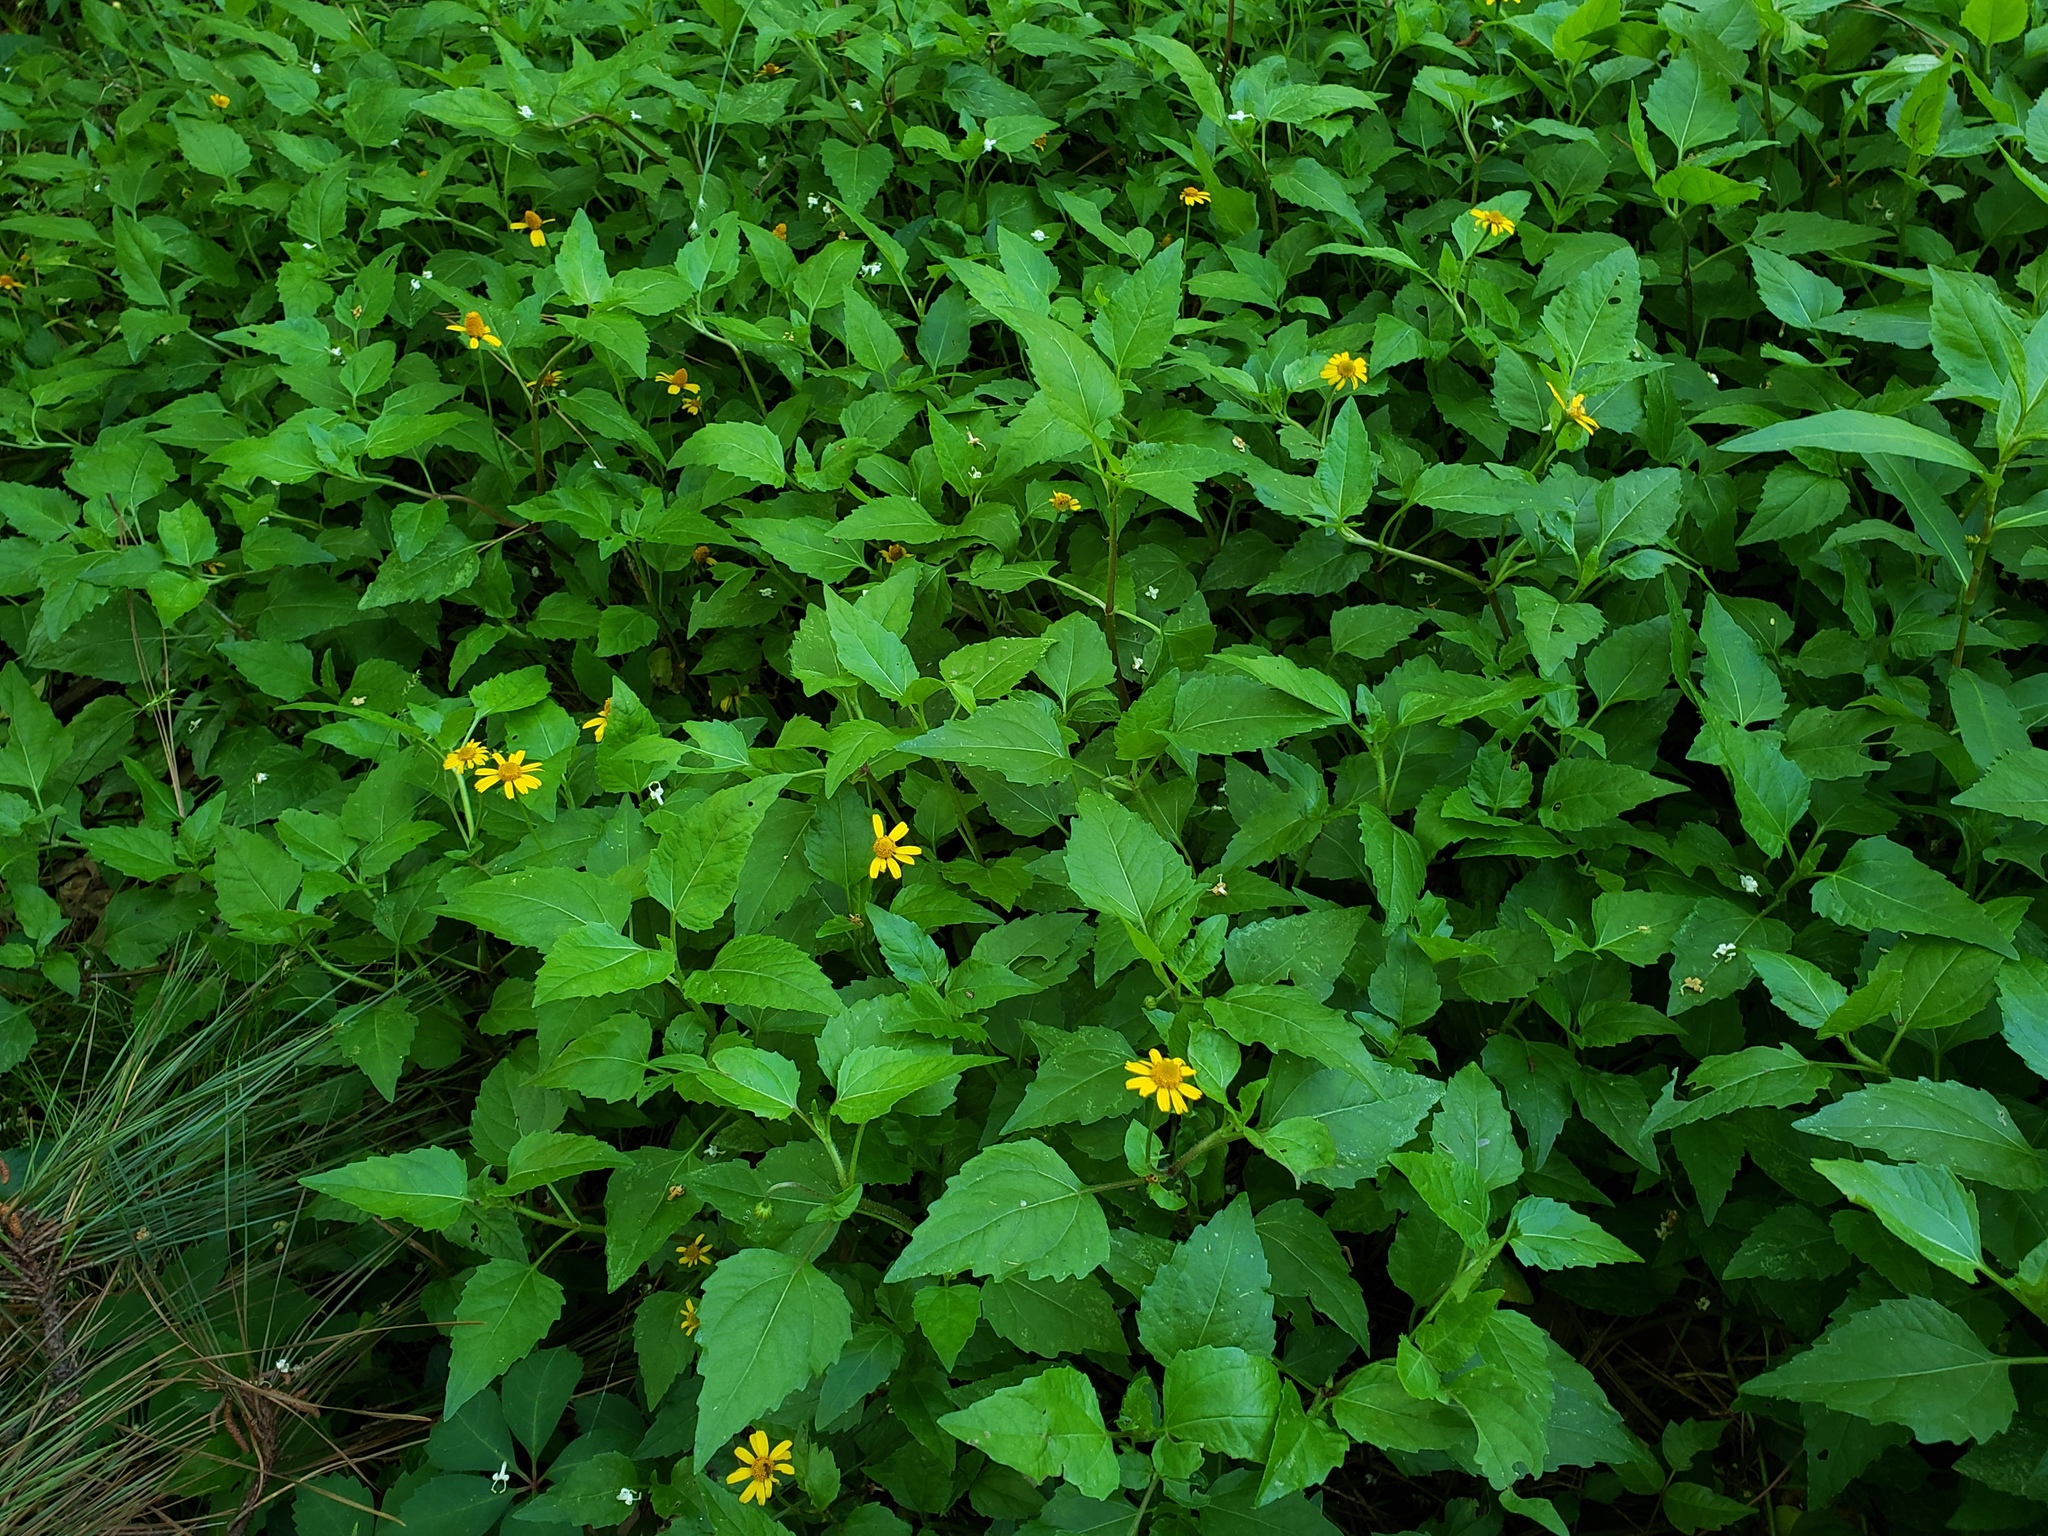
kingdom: Plantae
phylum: Tracheophyta
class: Magnoliopsida
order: Asterales
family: Asteraceae
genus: Acmella
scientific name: Acmella repens
